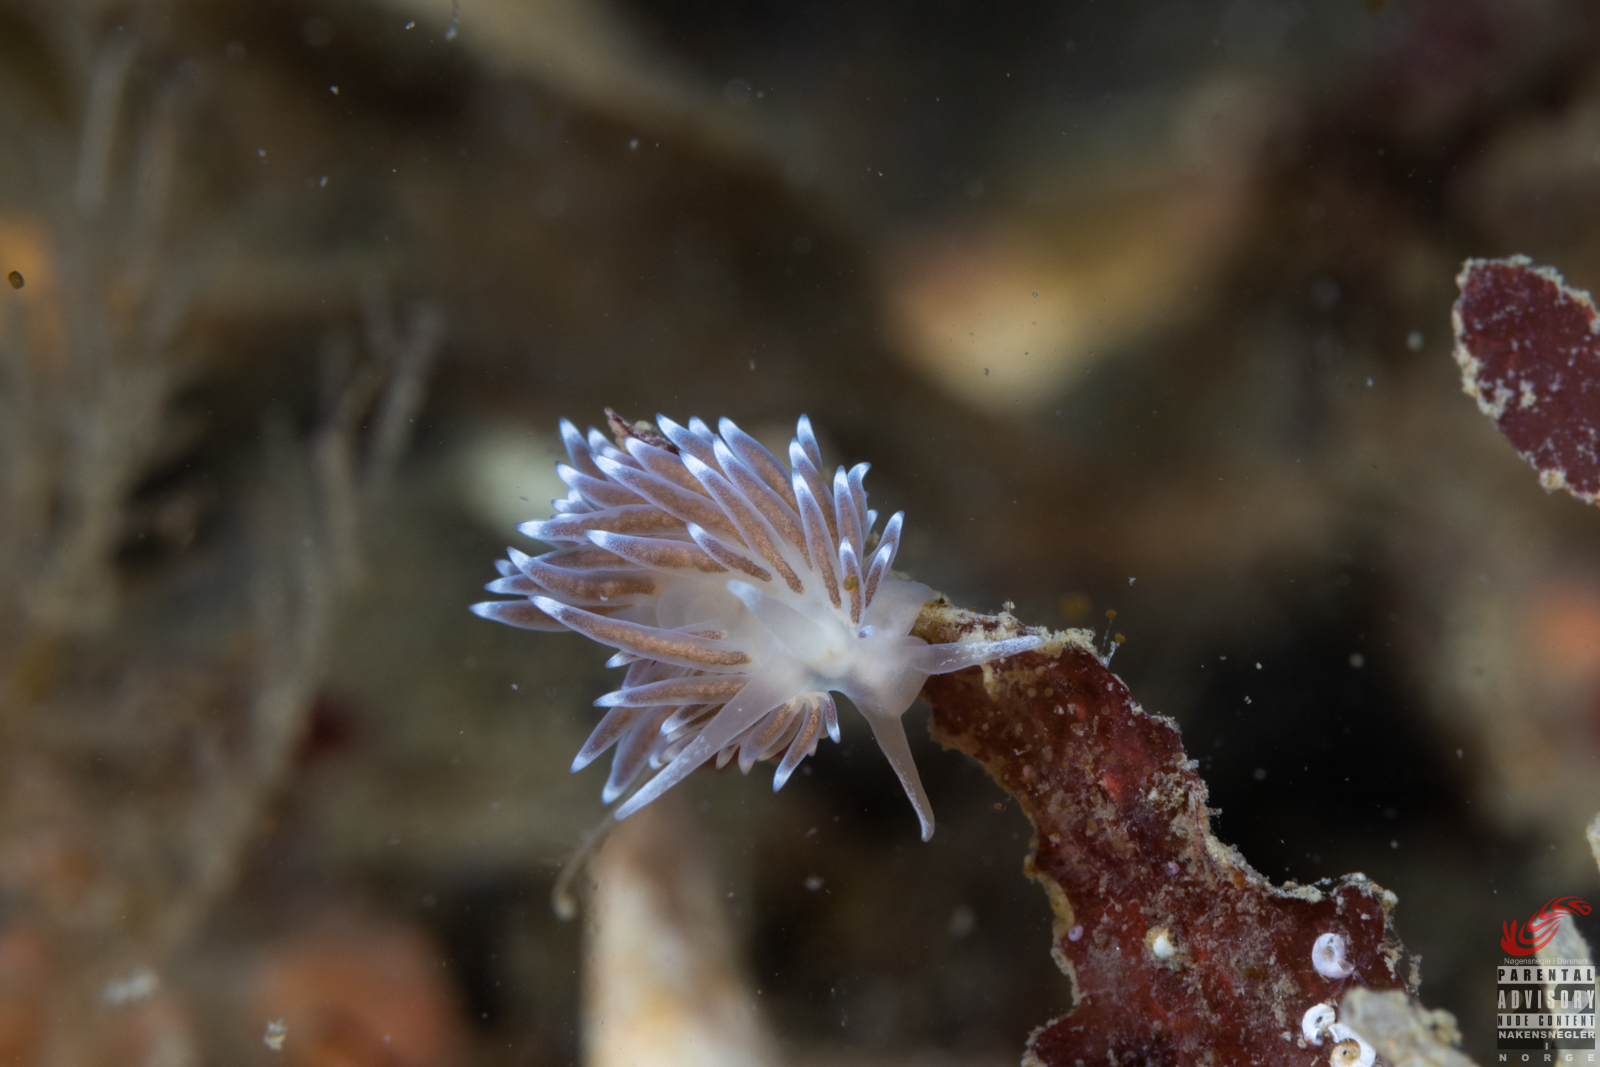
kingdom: Animalia
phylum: Mollusca
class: Gastropoda
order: Nudibranchia
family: Cuthonellidae
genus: Cuthonella
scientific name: Cuthonella concinna
